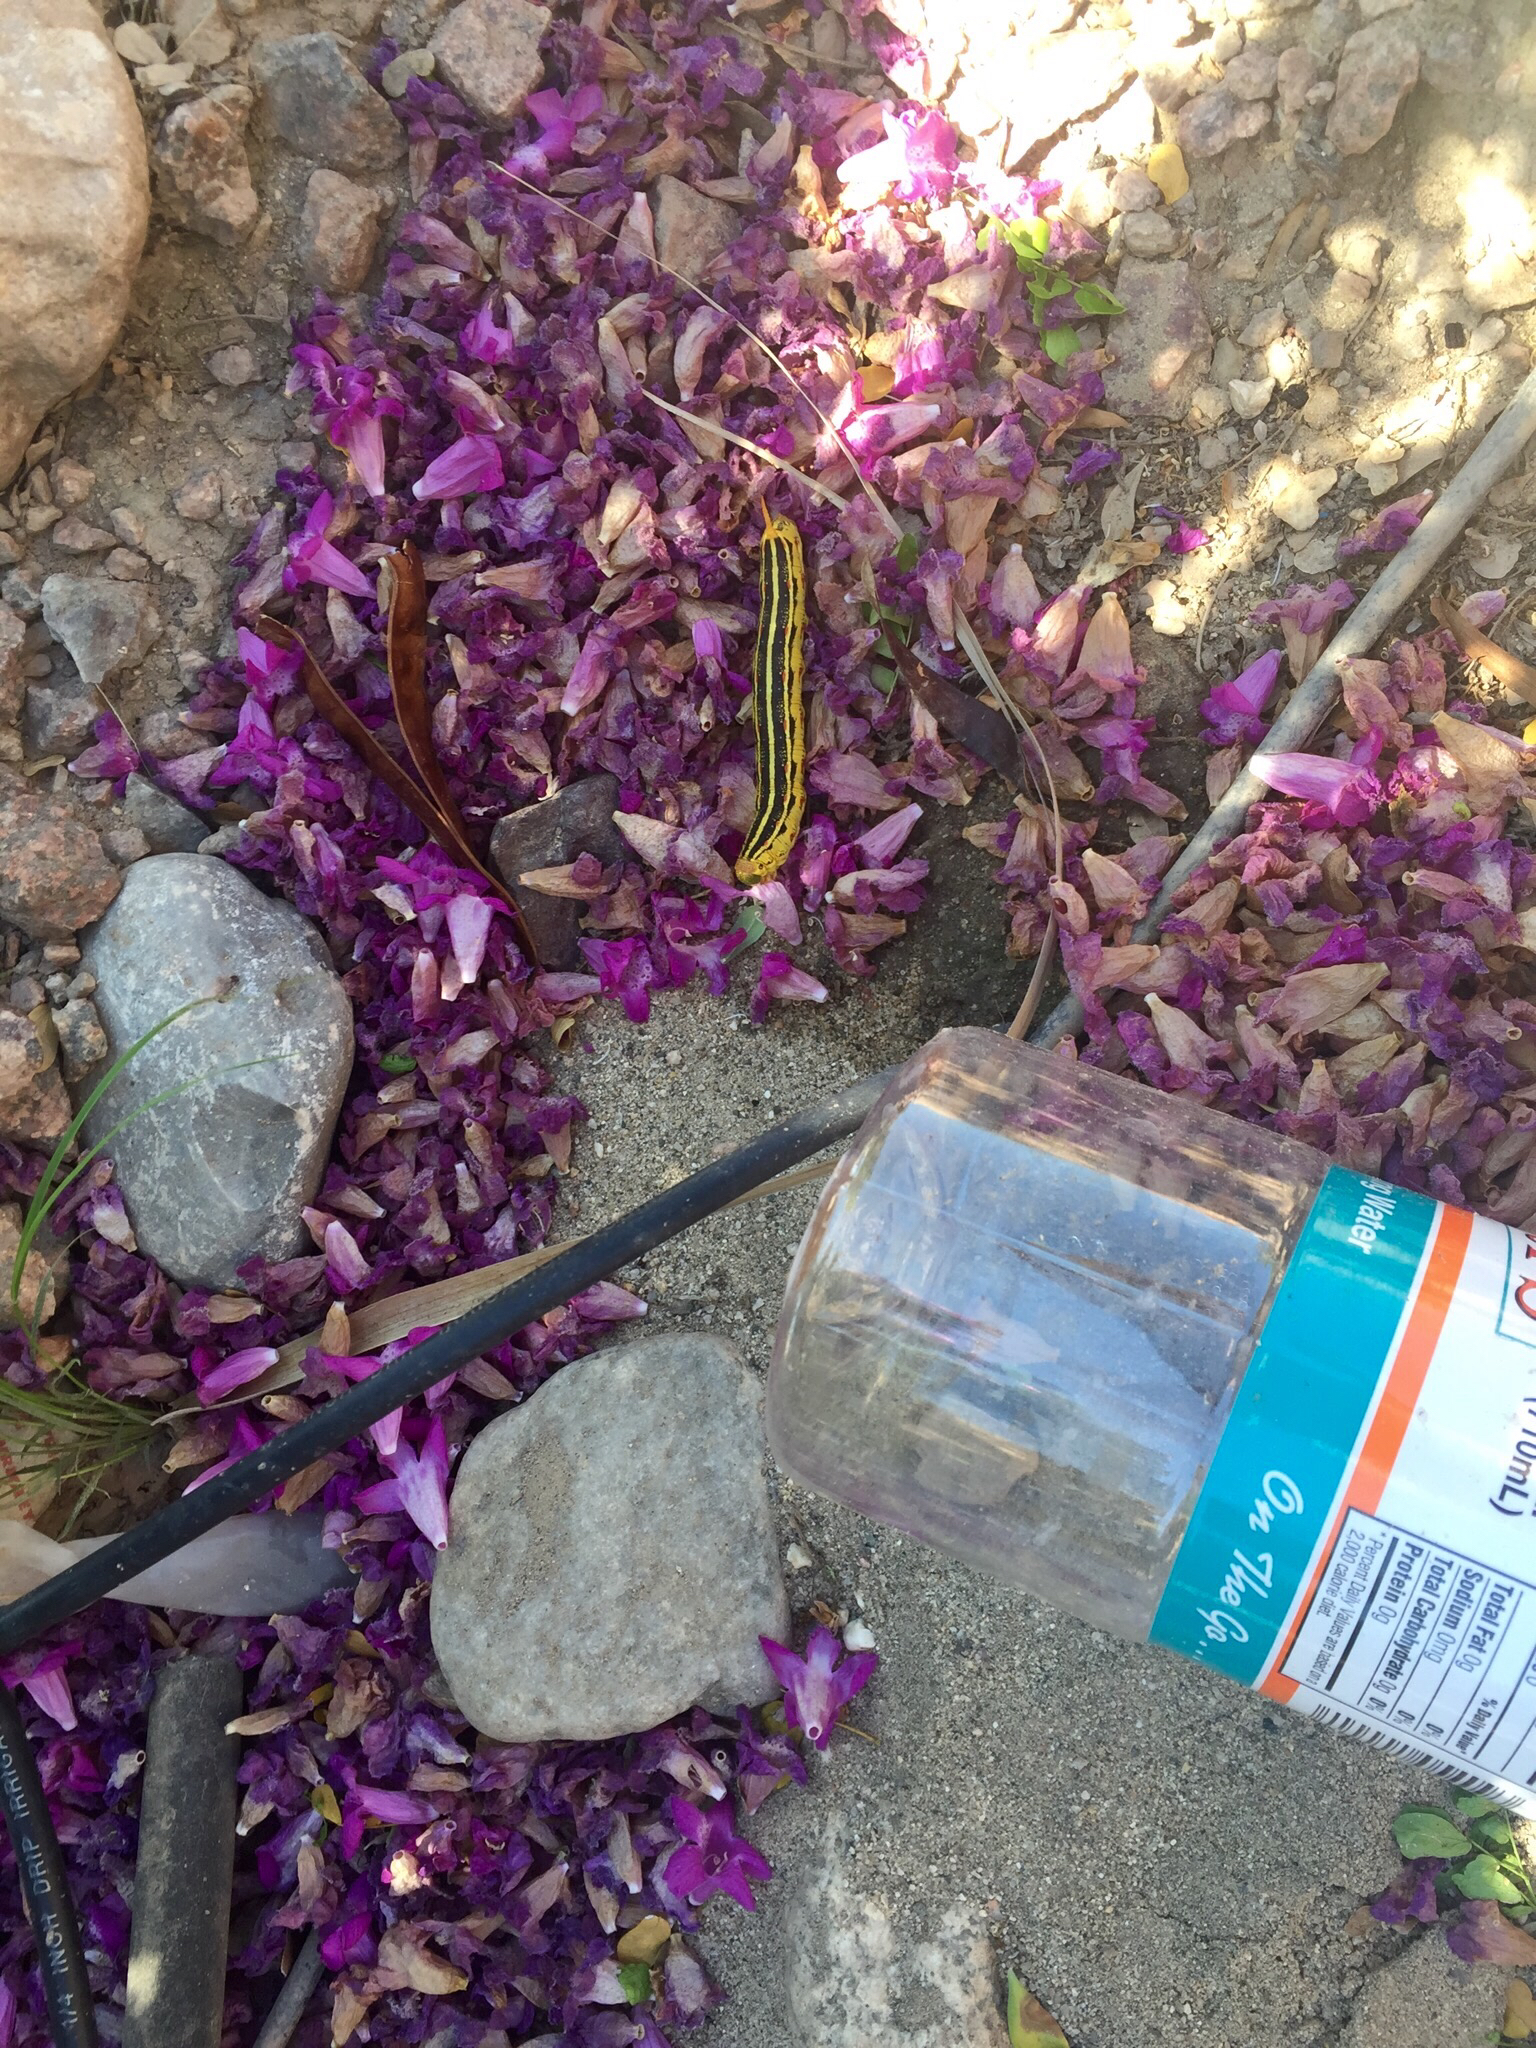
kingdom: Animalia
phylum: Arthropoda
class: Insecta
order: Lepidoptera
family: Sphingidae
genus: Hyles
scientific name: Hyles lineata
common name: White-lined sphinx
